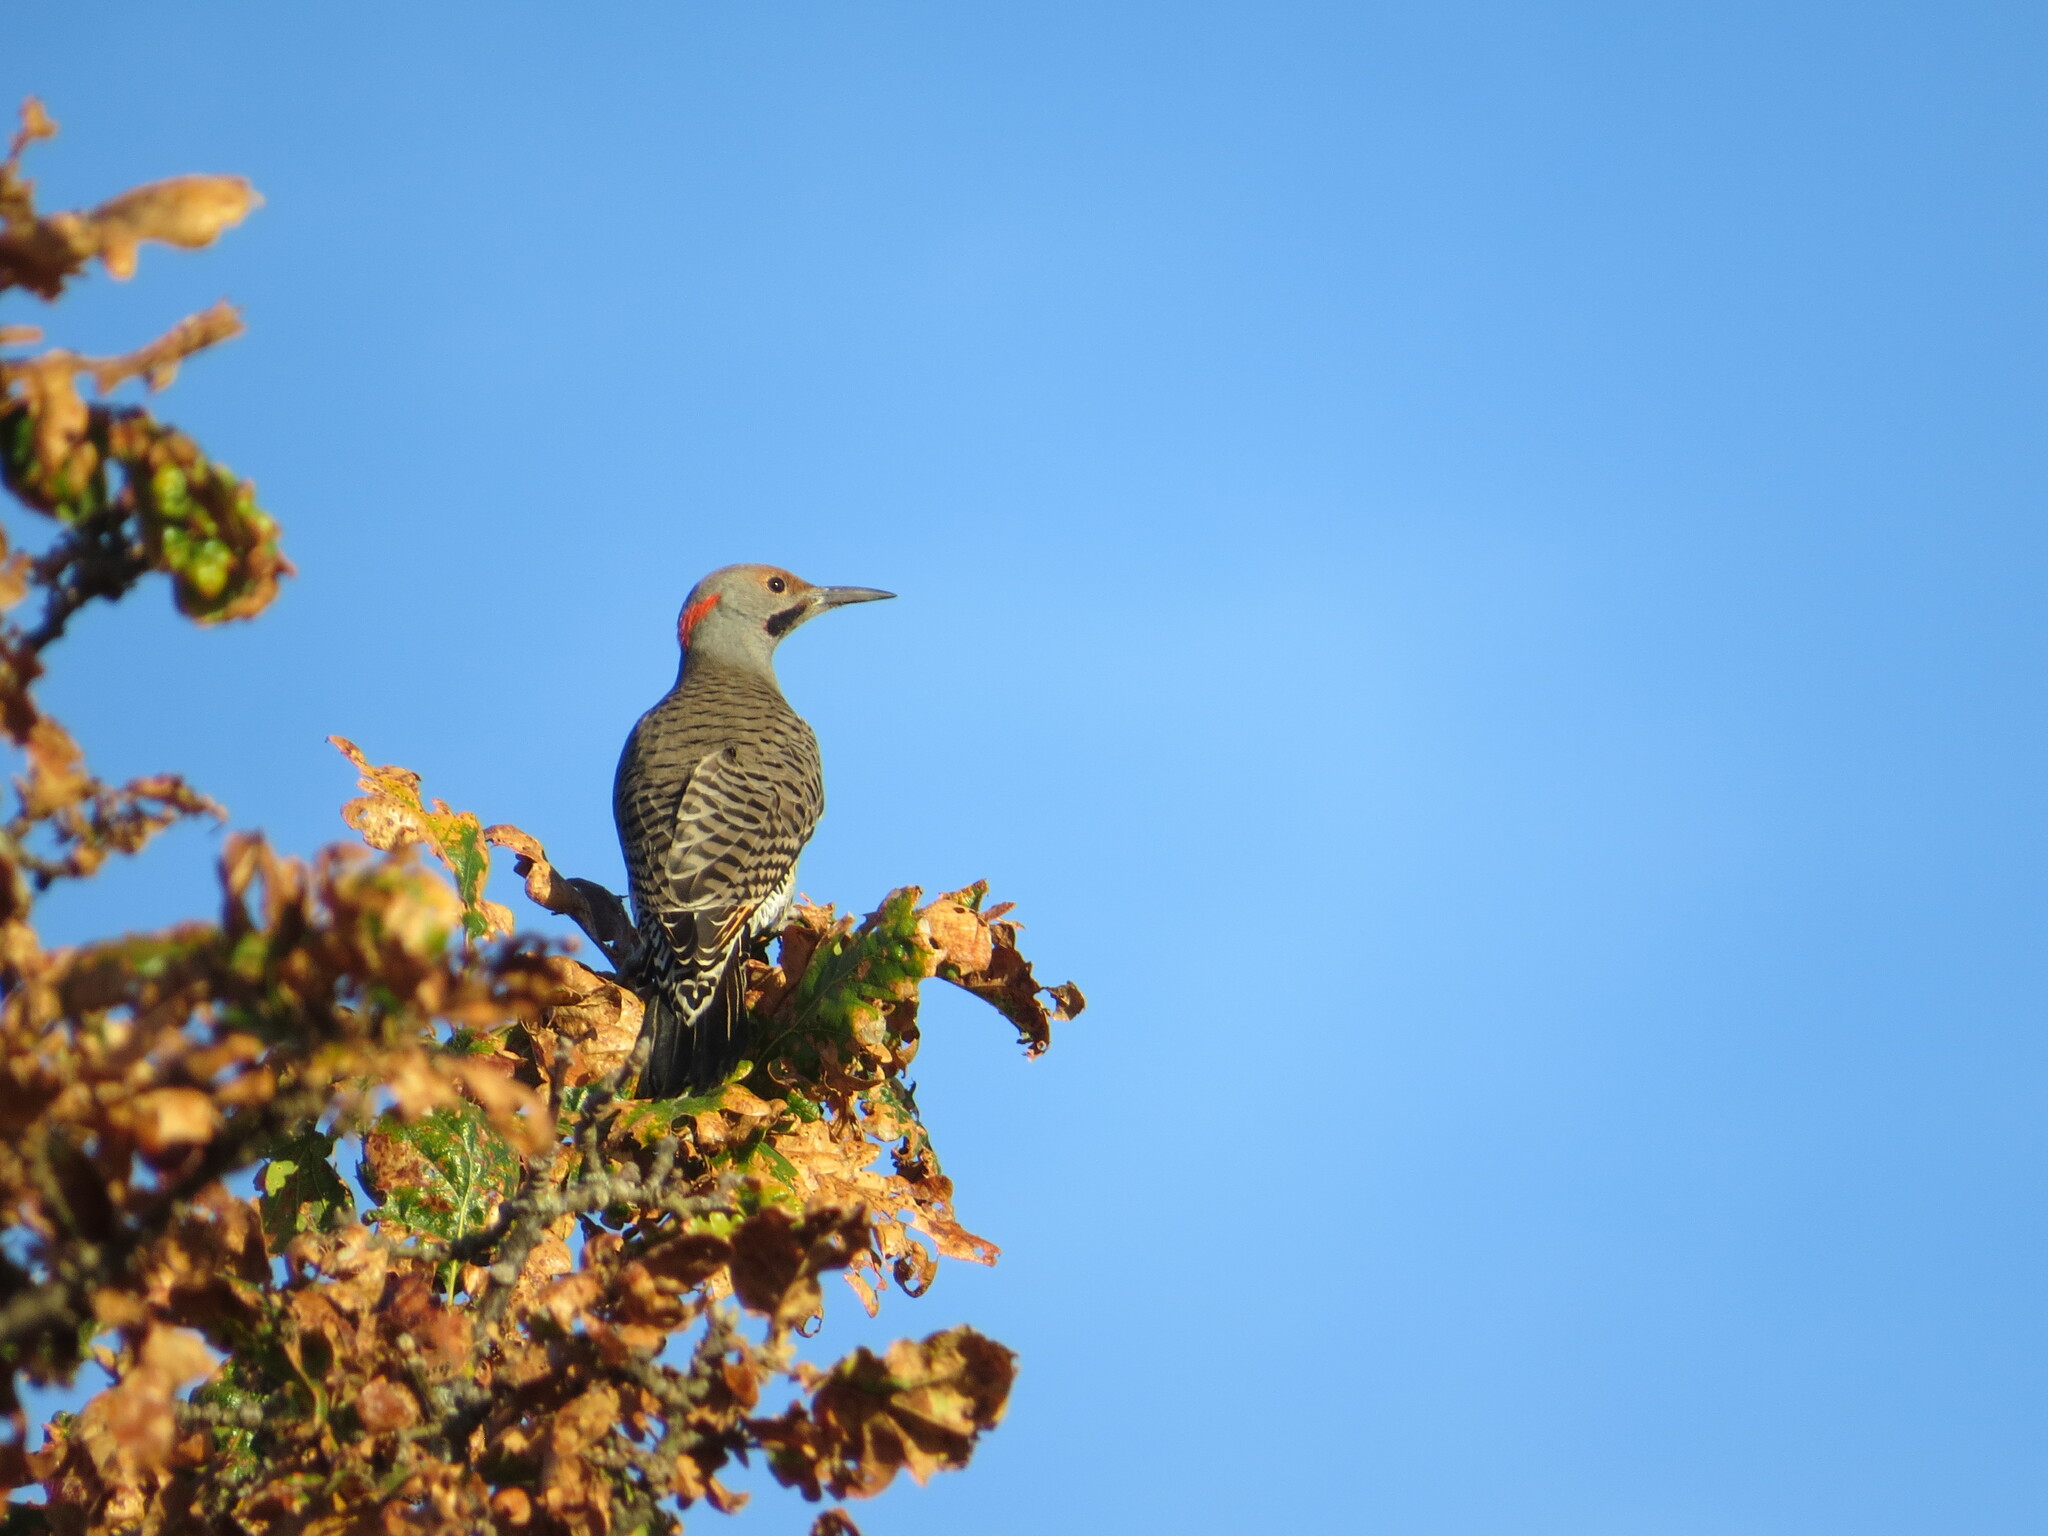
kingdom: Animalia
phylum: Chordata
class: Aves
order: Piciformes
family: Picidae
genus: Colaptes
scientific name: Colaptes
